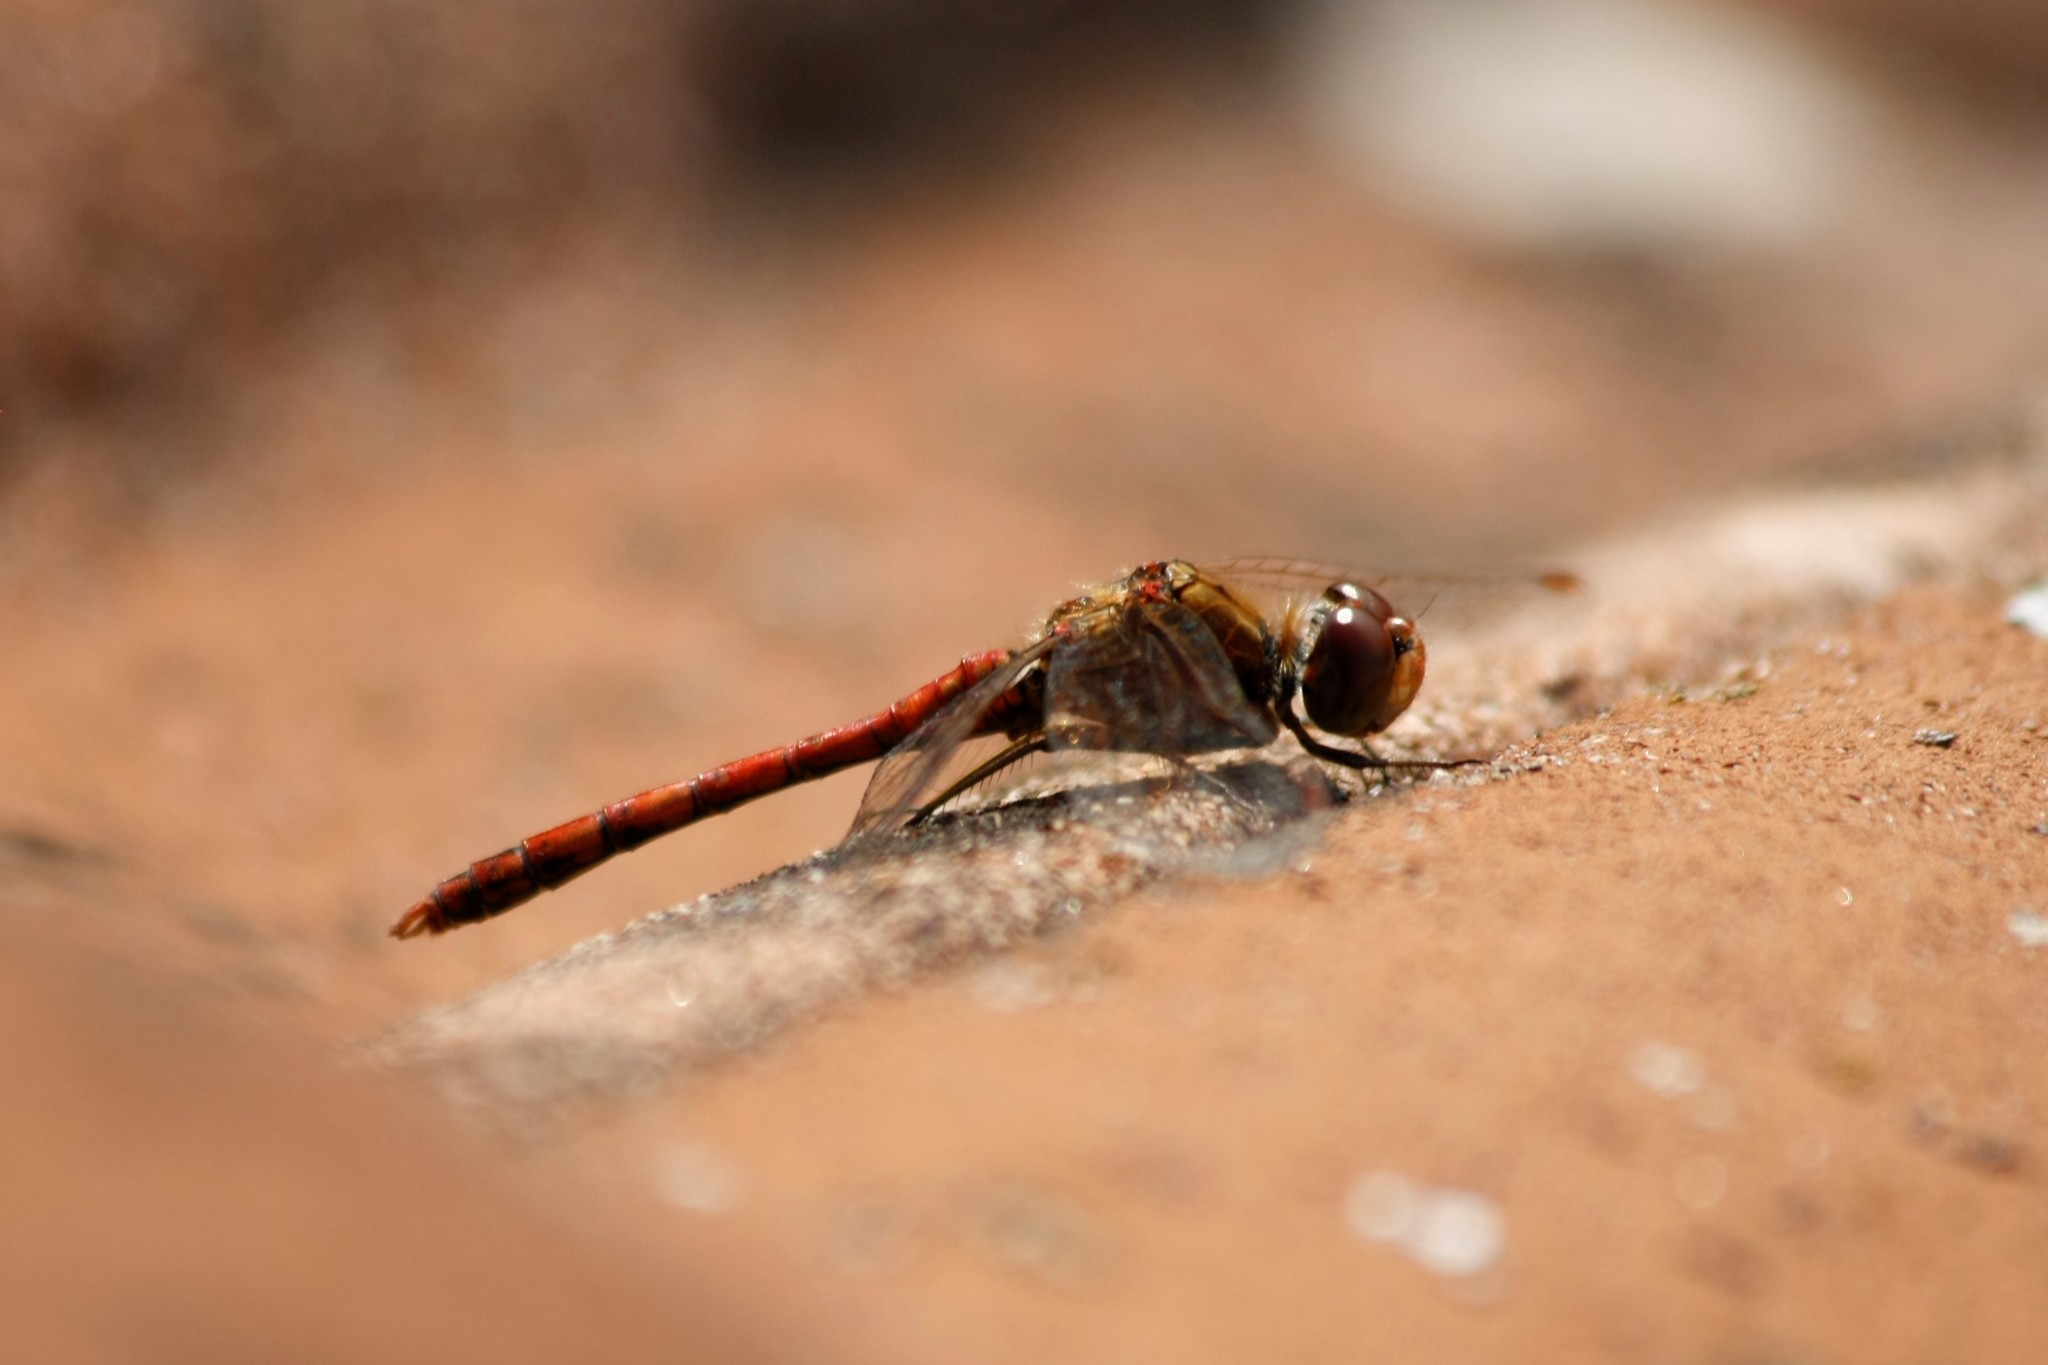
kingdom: Animalia
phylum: Arthropoda
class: Insecta
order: Odonata
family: Libellulidae
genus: Sympetrum
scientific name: Sympetrum striolatum
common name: Common darter
